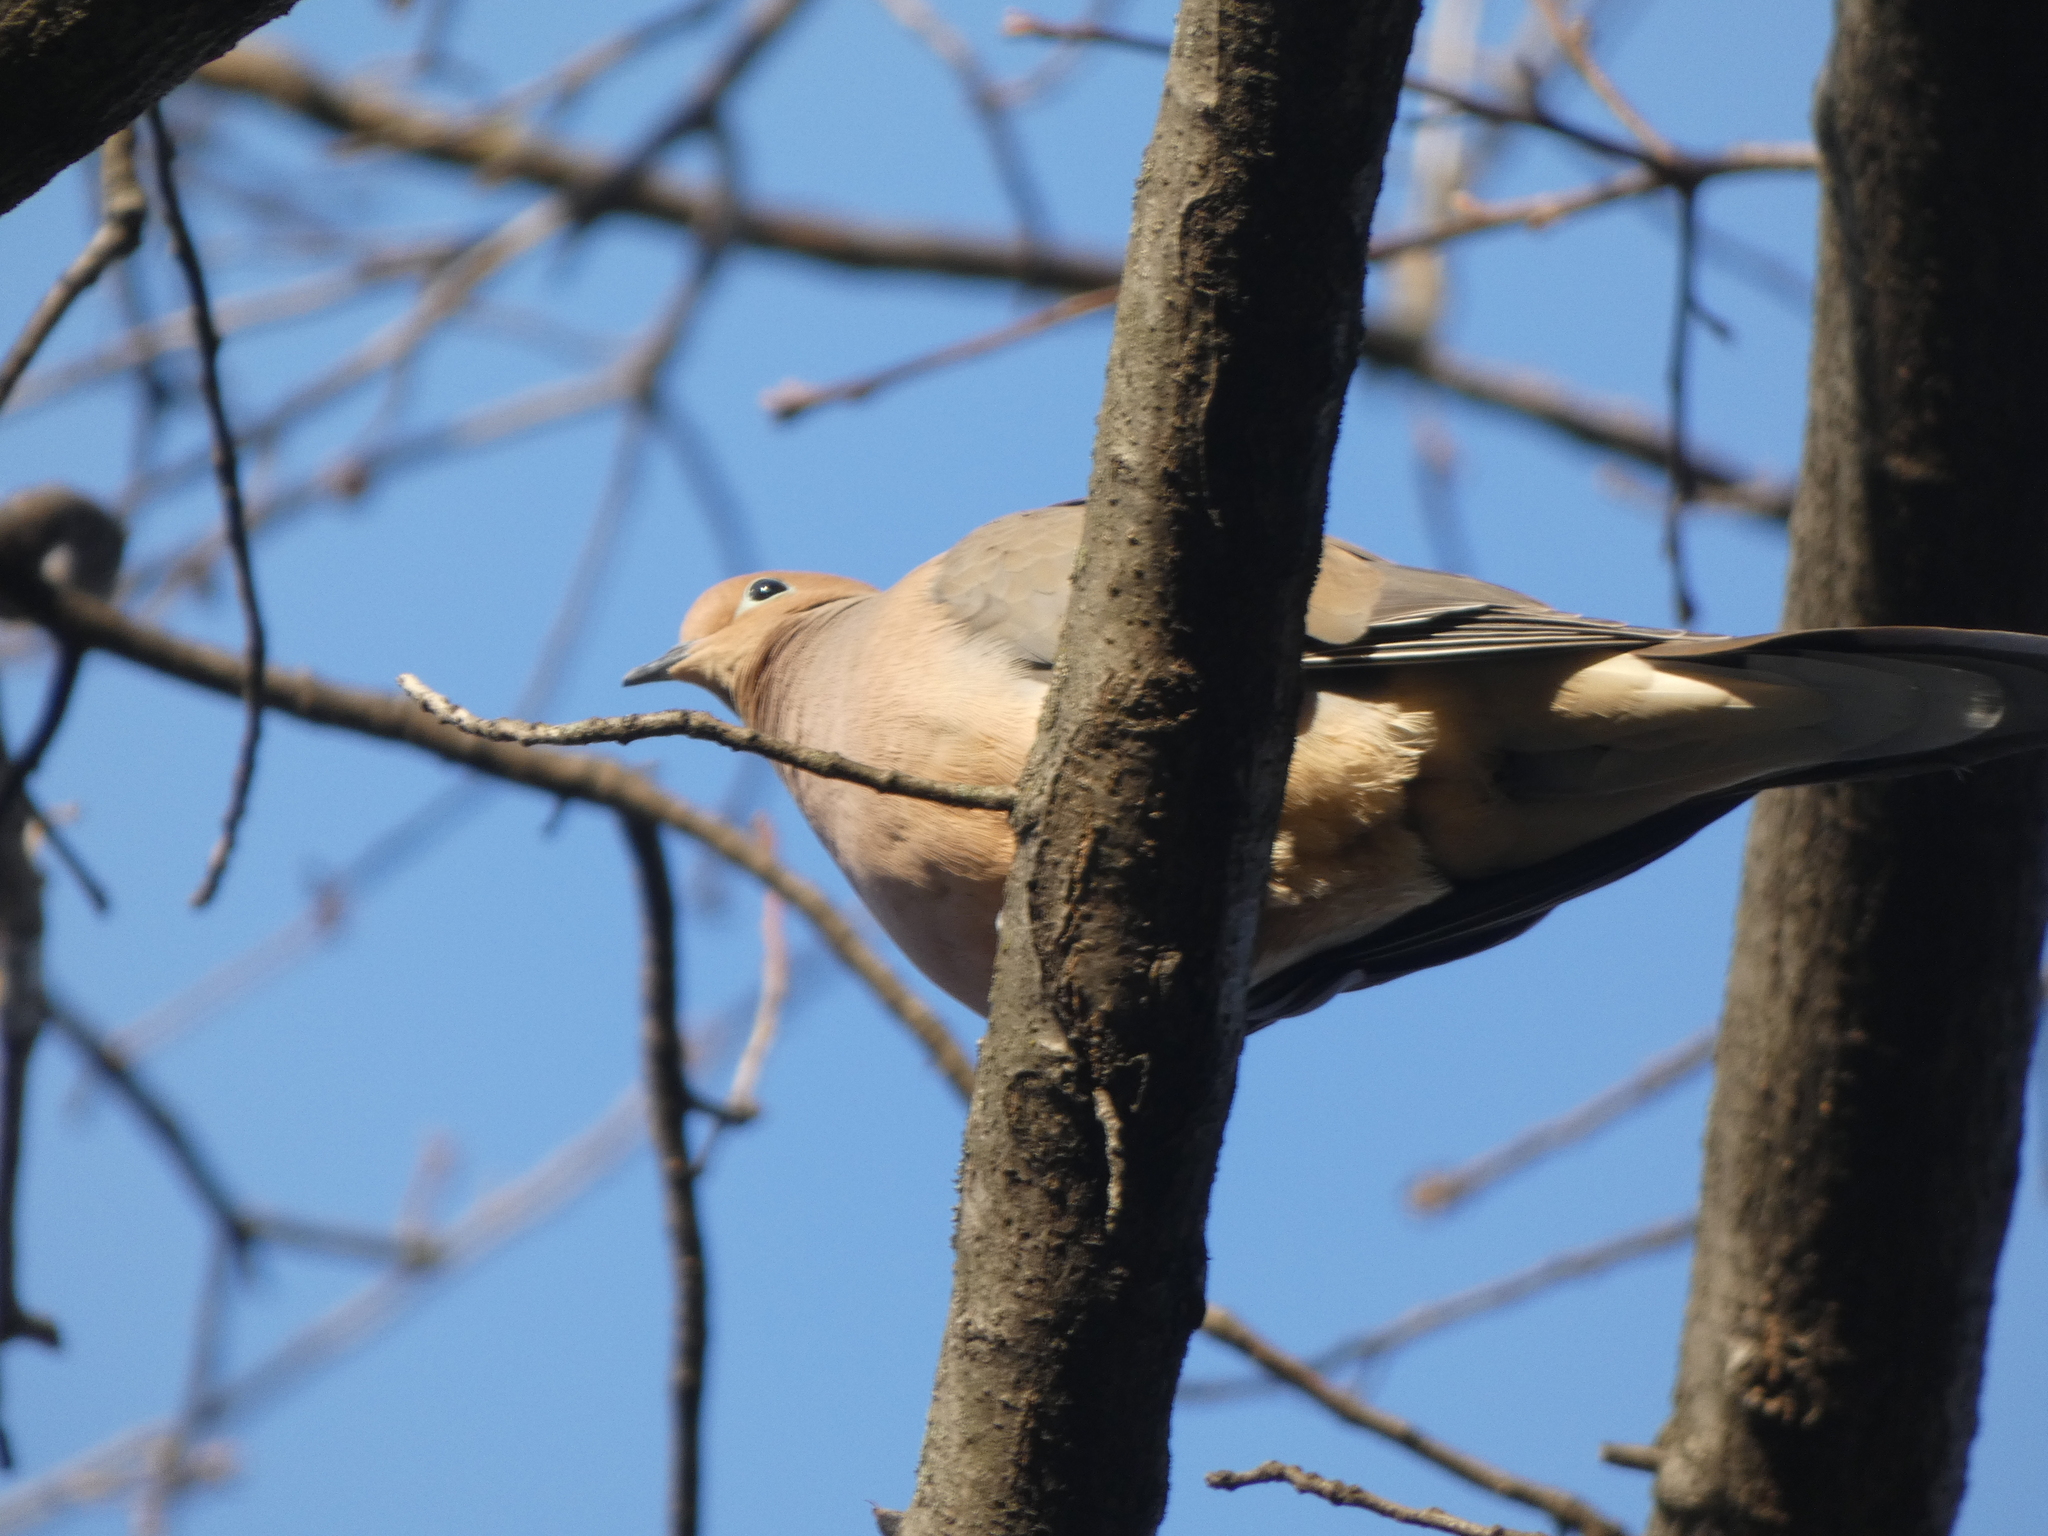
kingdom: Animalia
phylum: Chordata
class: Aves
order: Columbiformes
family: Columbidae
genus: Zenaida
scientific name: Zenaida macroura
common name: Mourning dove
